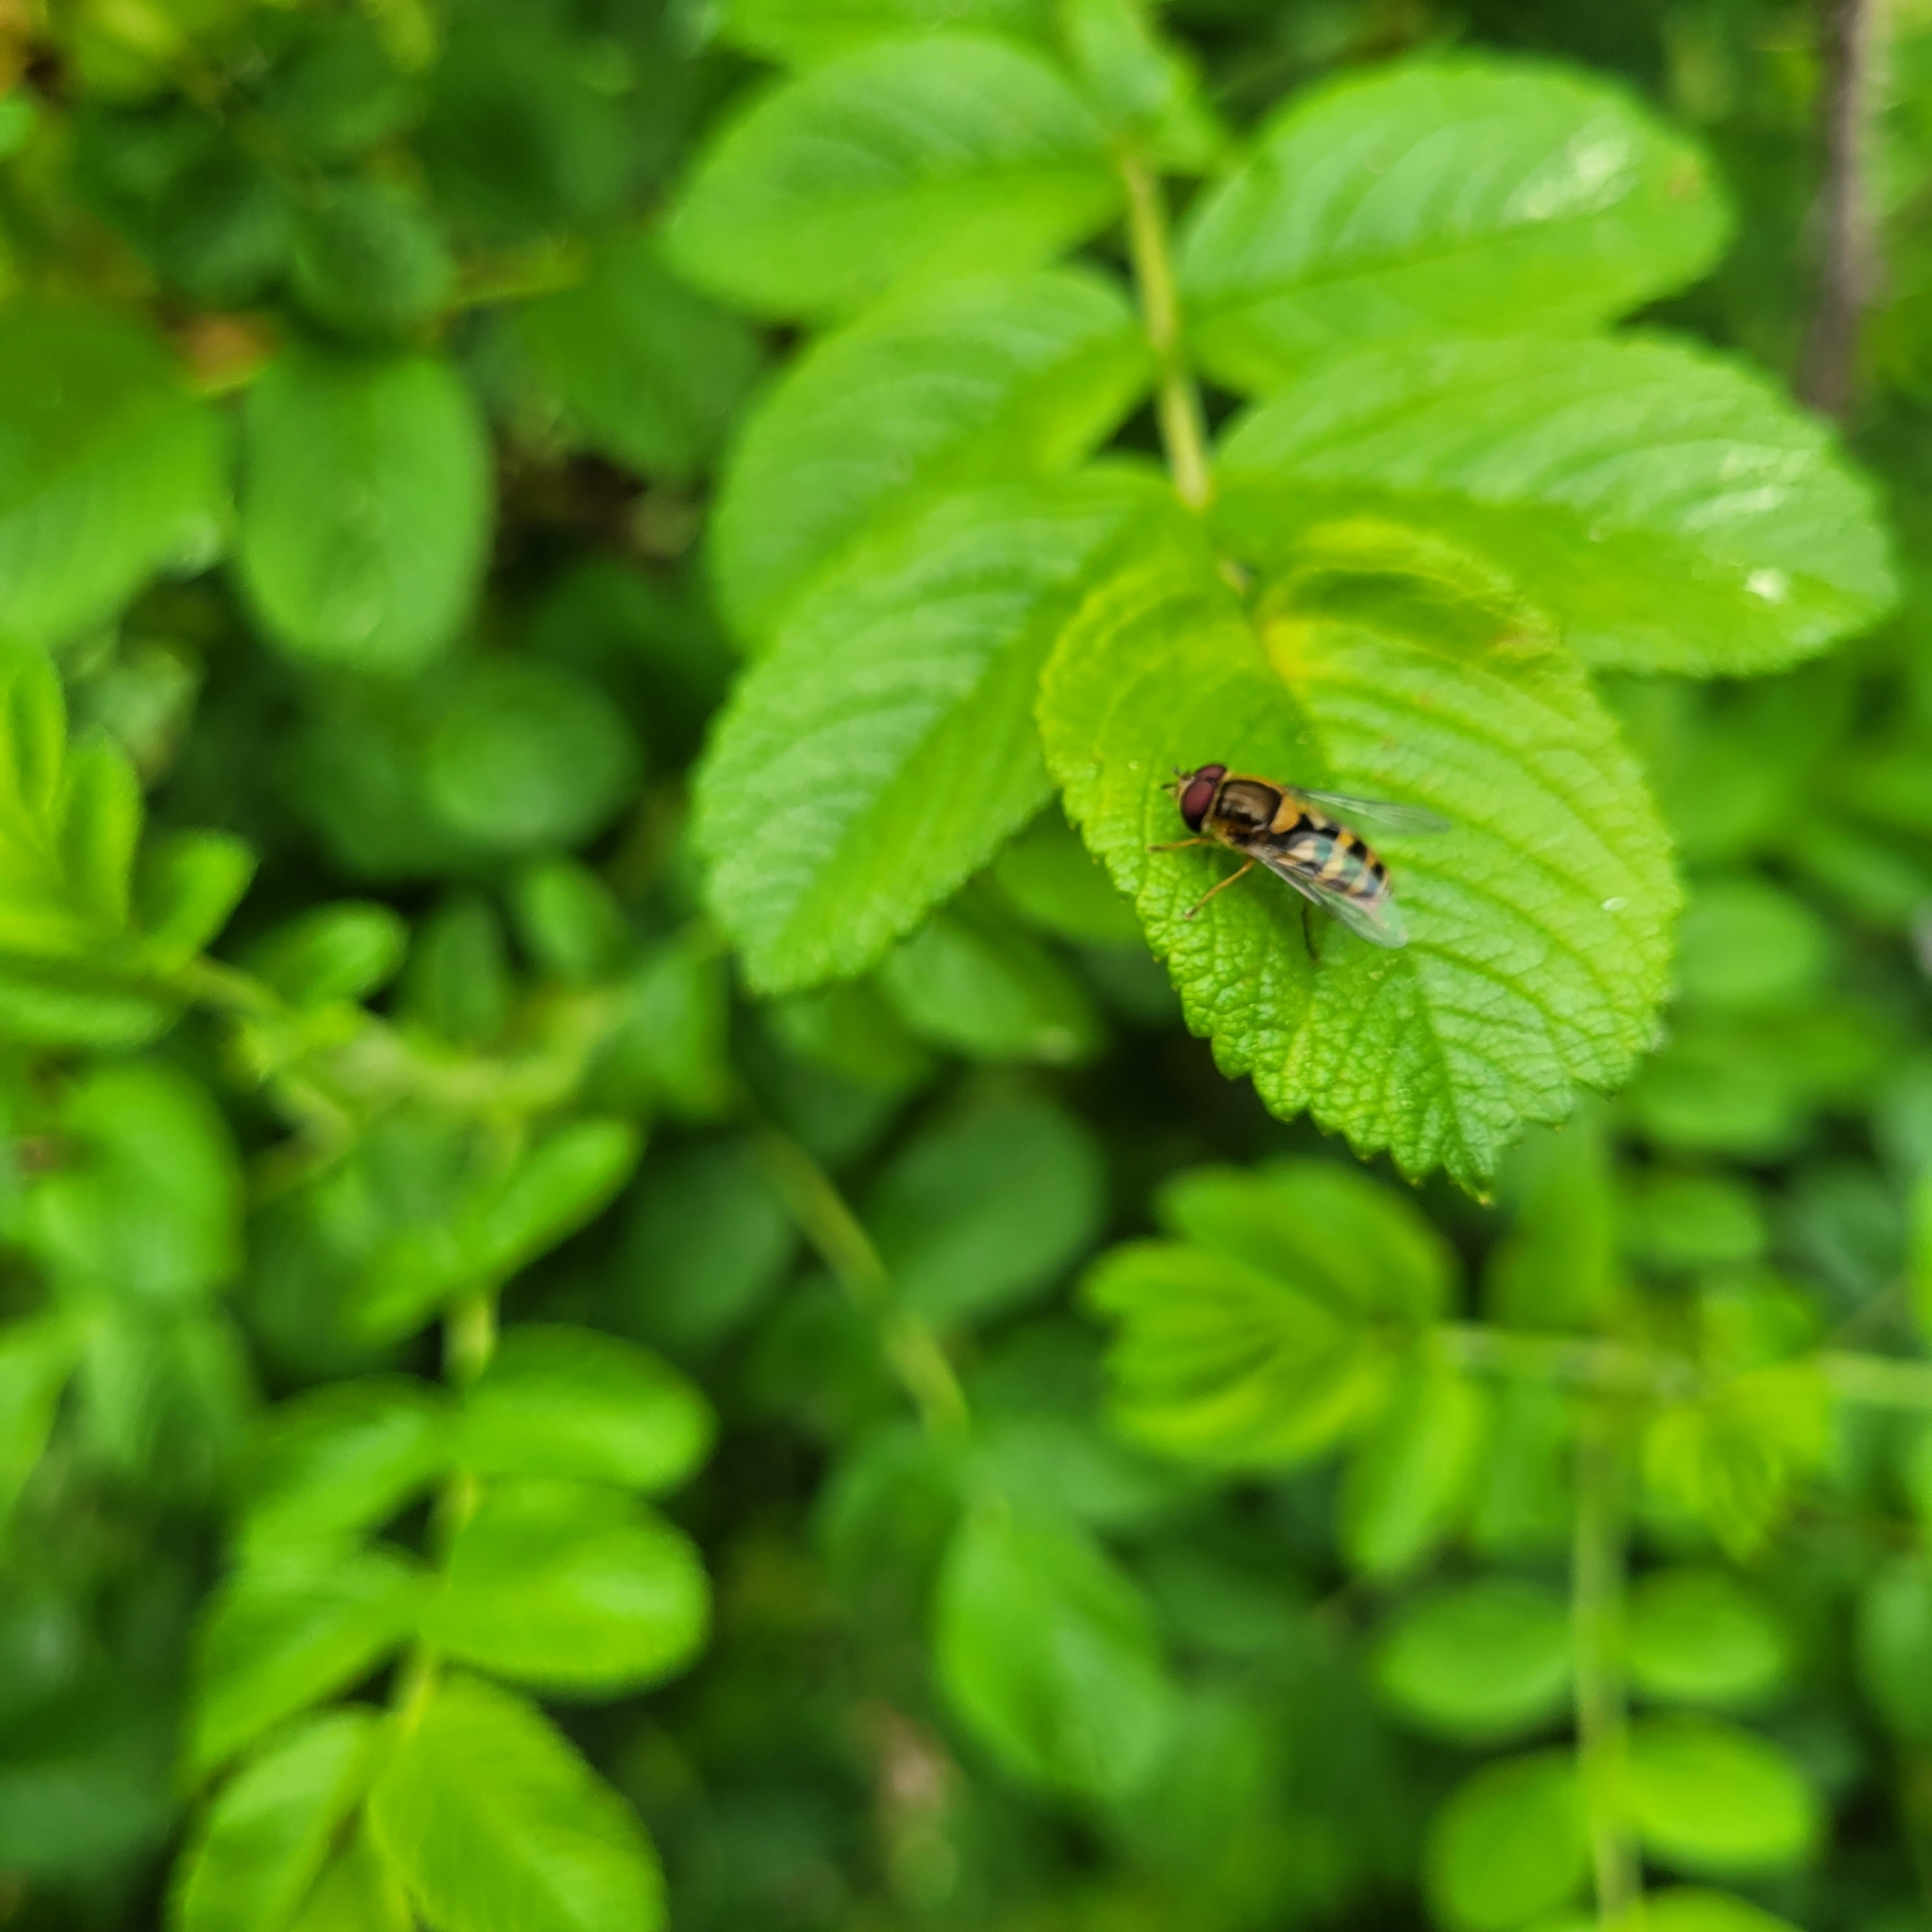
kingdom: Animalia
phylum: Arthropoda
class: Insecta
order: Diptera
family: Syrphidae
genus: Syrphus
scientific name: Syrphus
